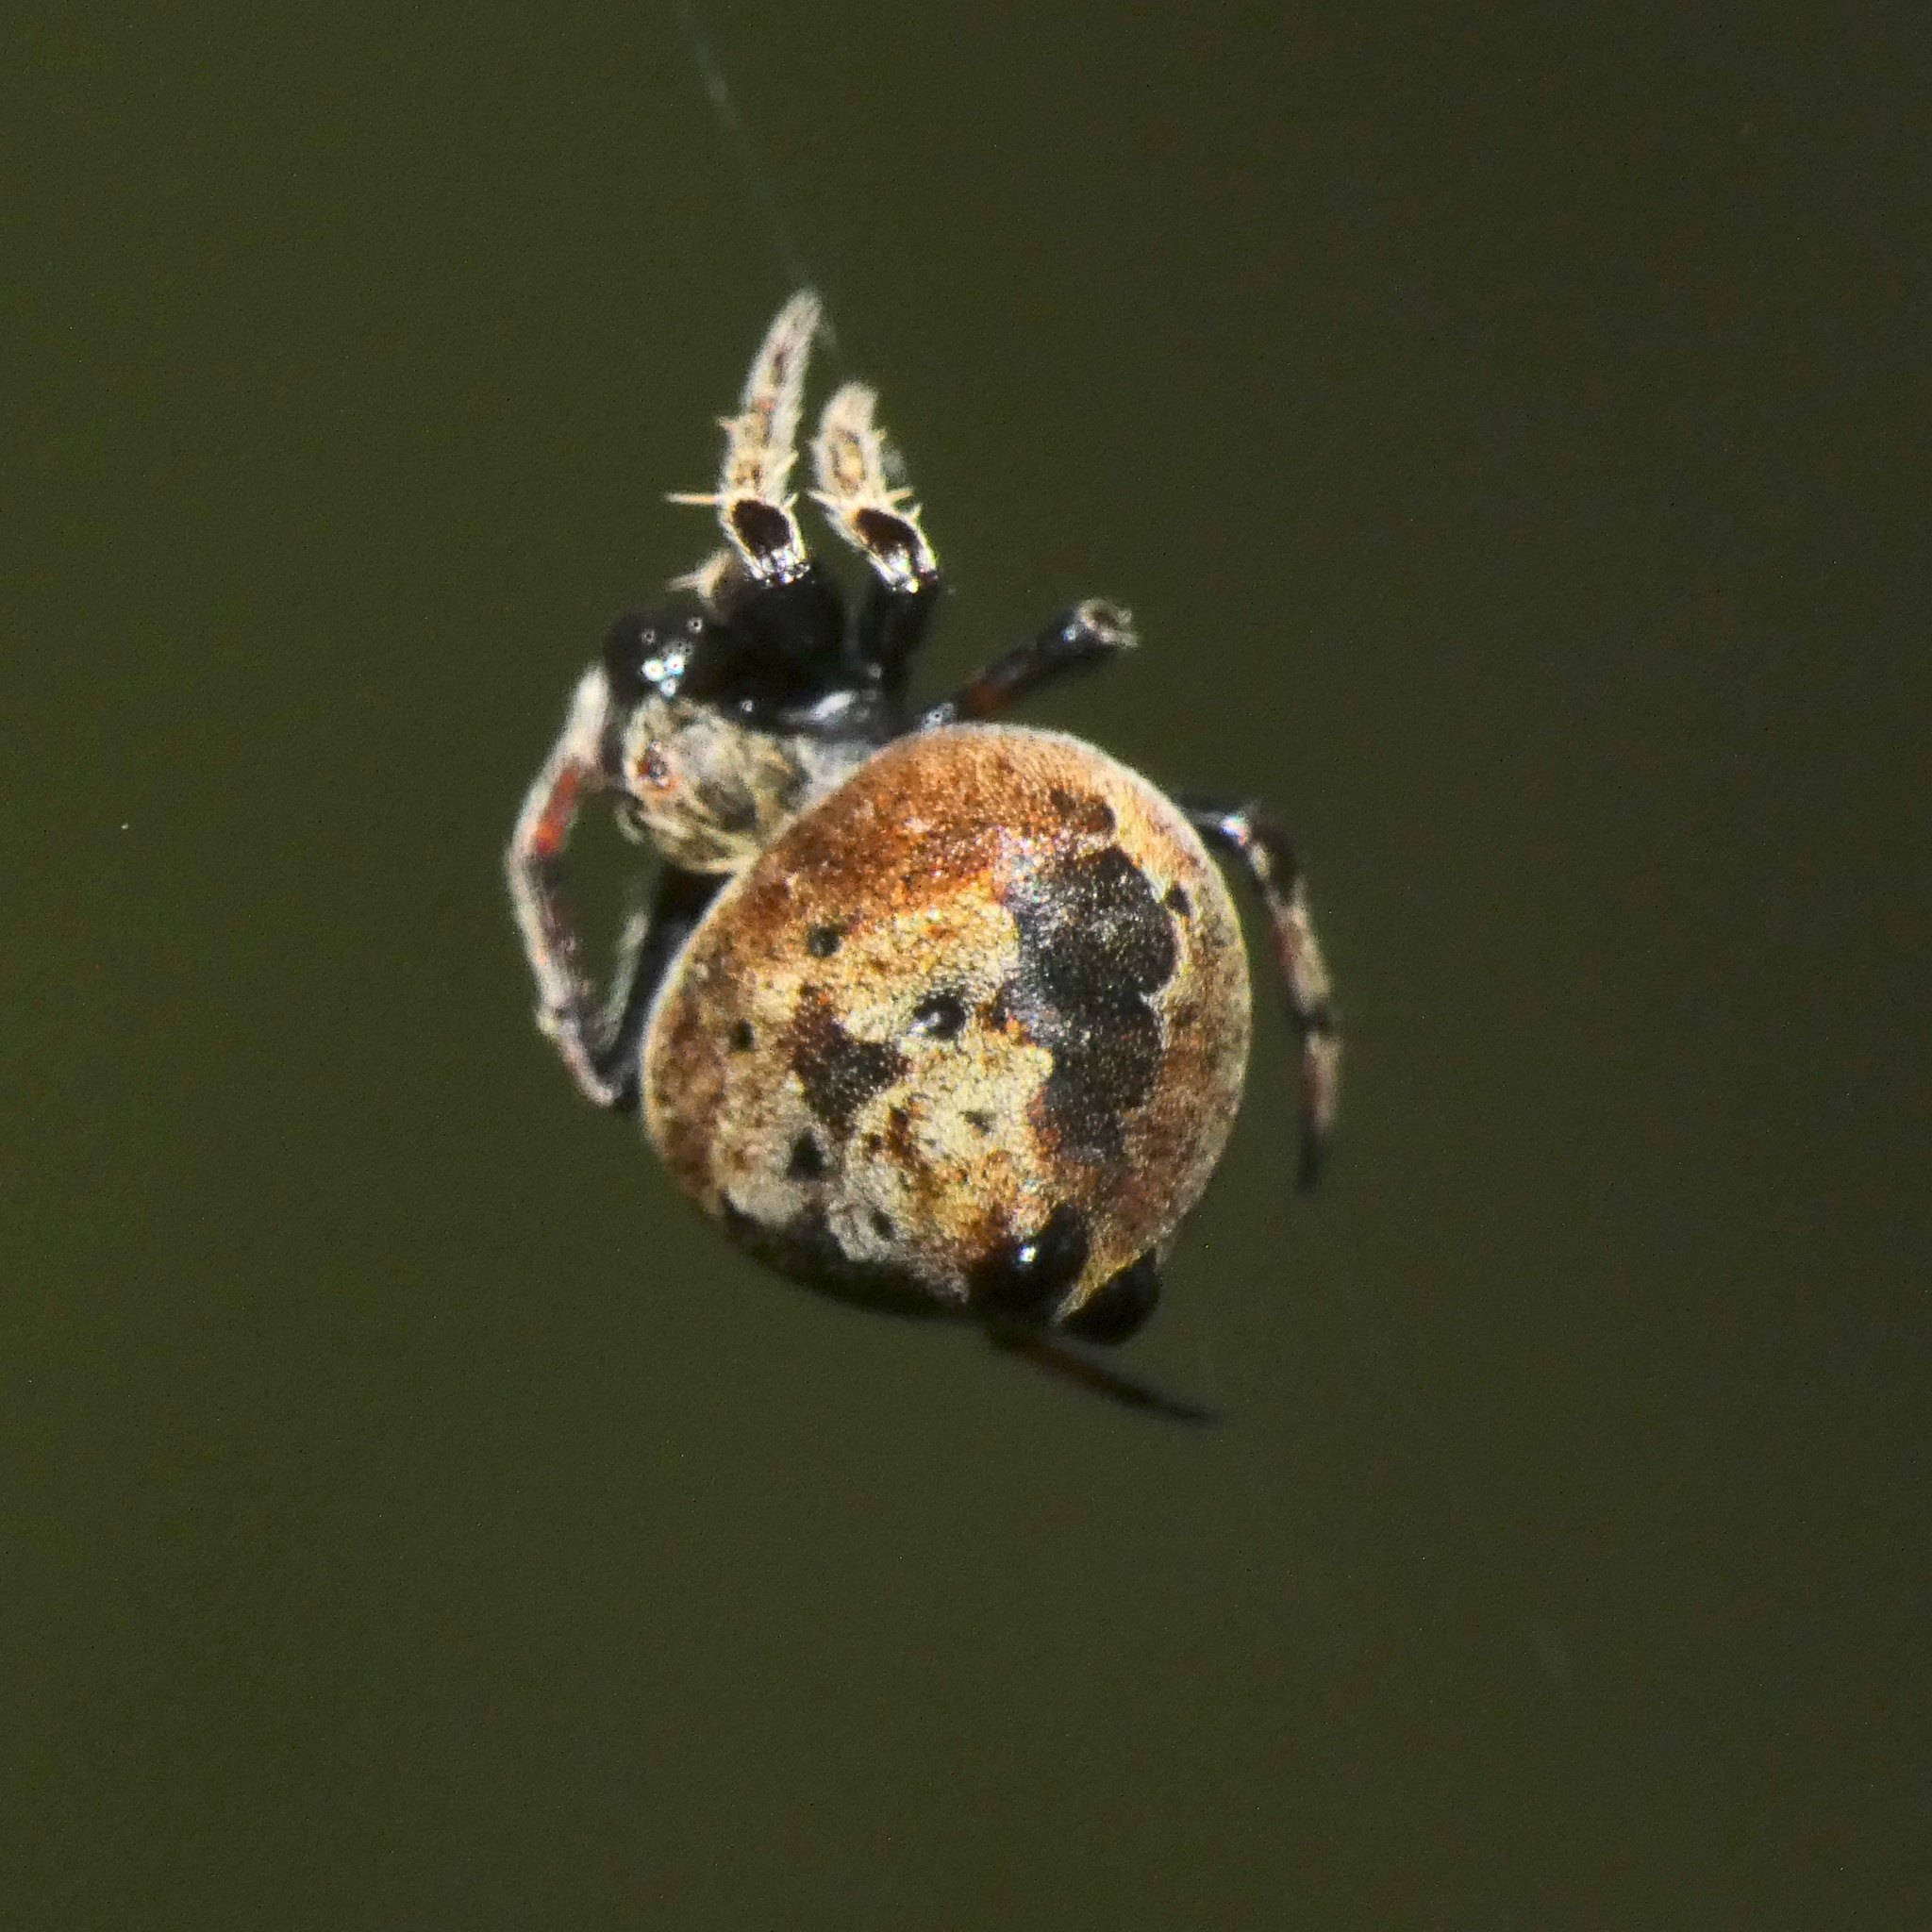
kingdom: Animalia
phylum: Arthropoda
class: Arachnida
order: Araneae
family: Araneidae
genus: Eriovixia
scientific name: Eriovixia excelsa
